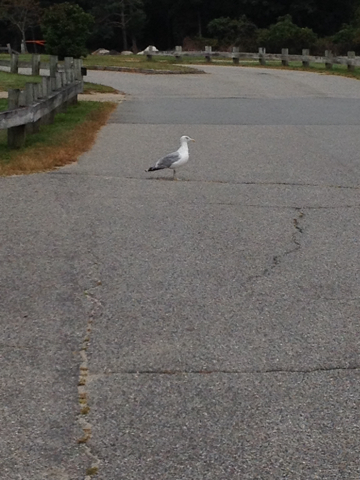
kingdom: Animalia
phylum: Chordata
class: Aves
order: Charadriiformes
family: Laridae
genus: Larus
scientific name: Larus argentatus
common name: Herring gull
